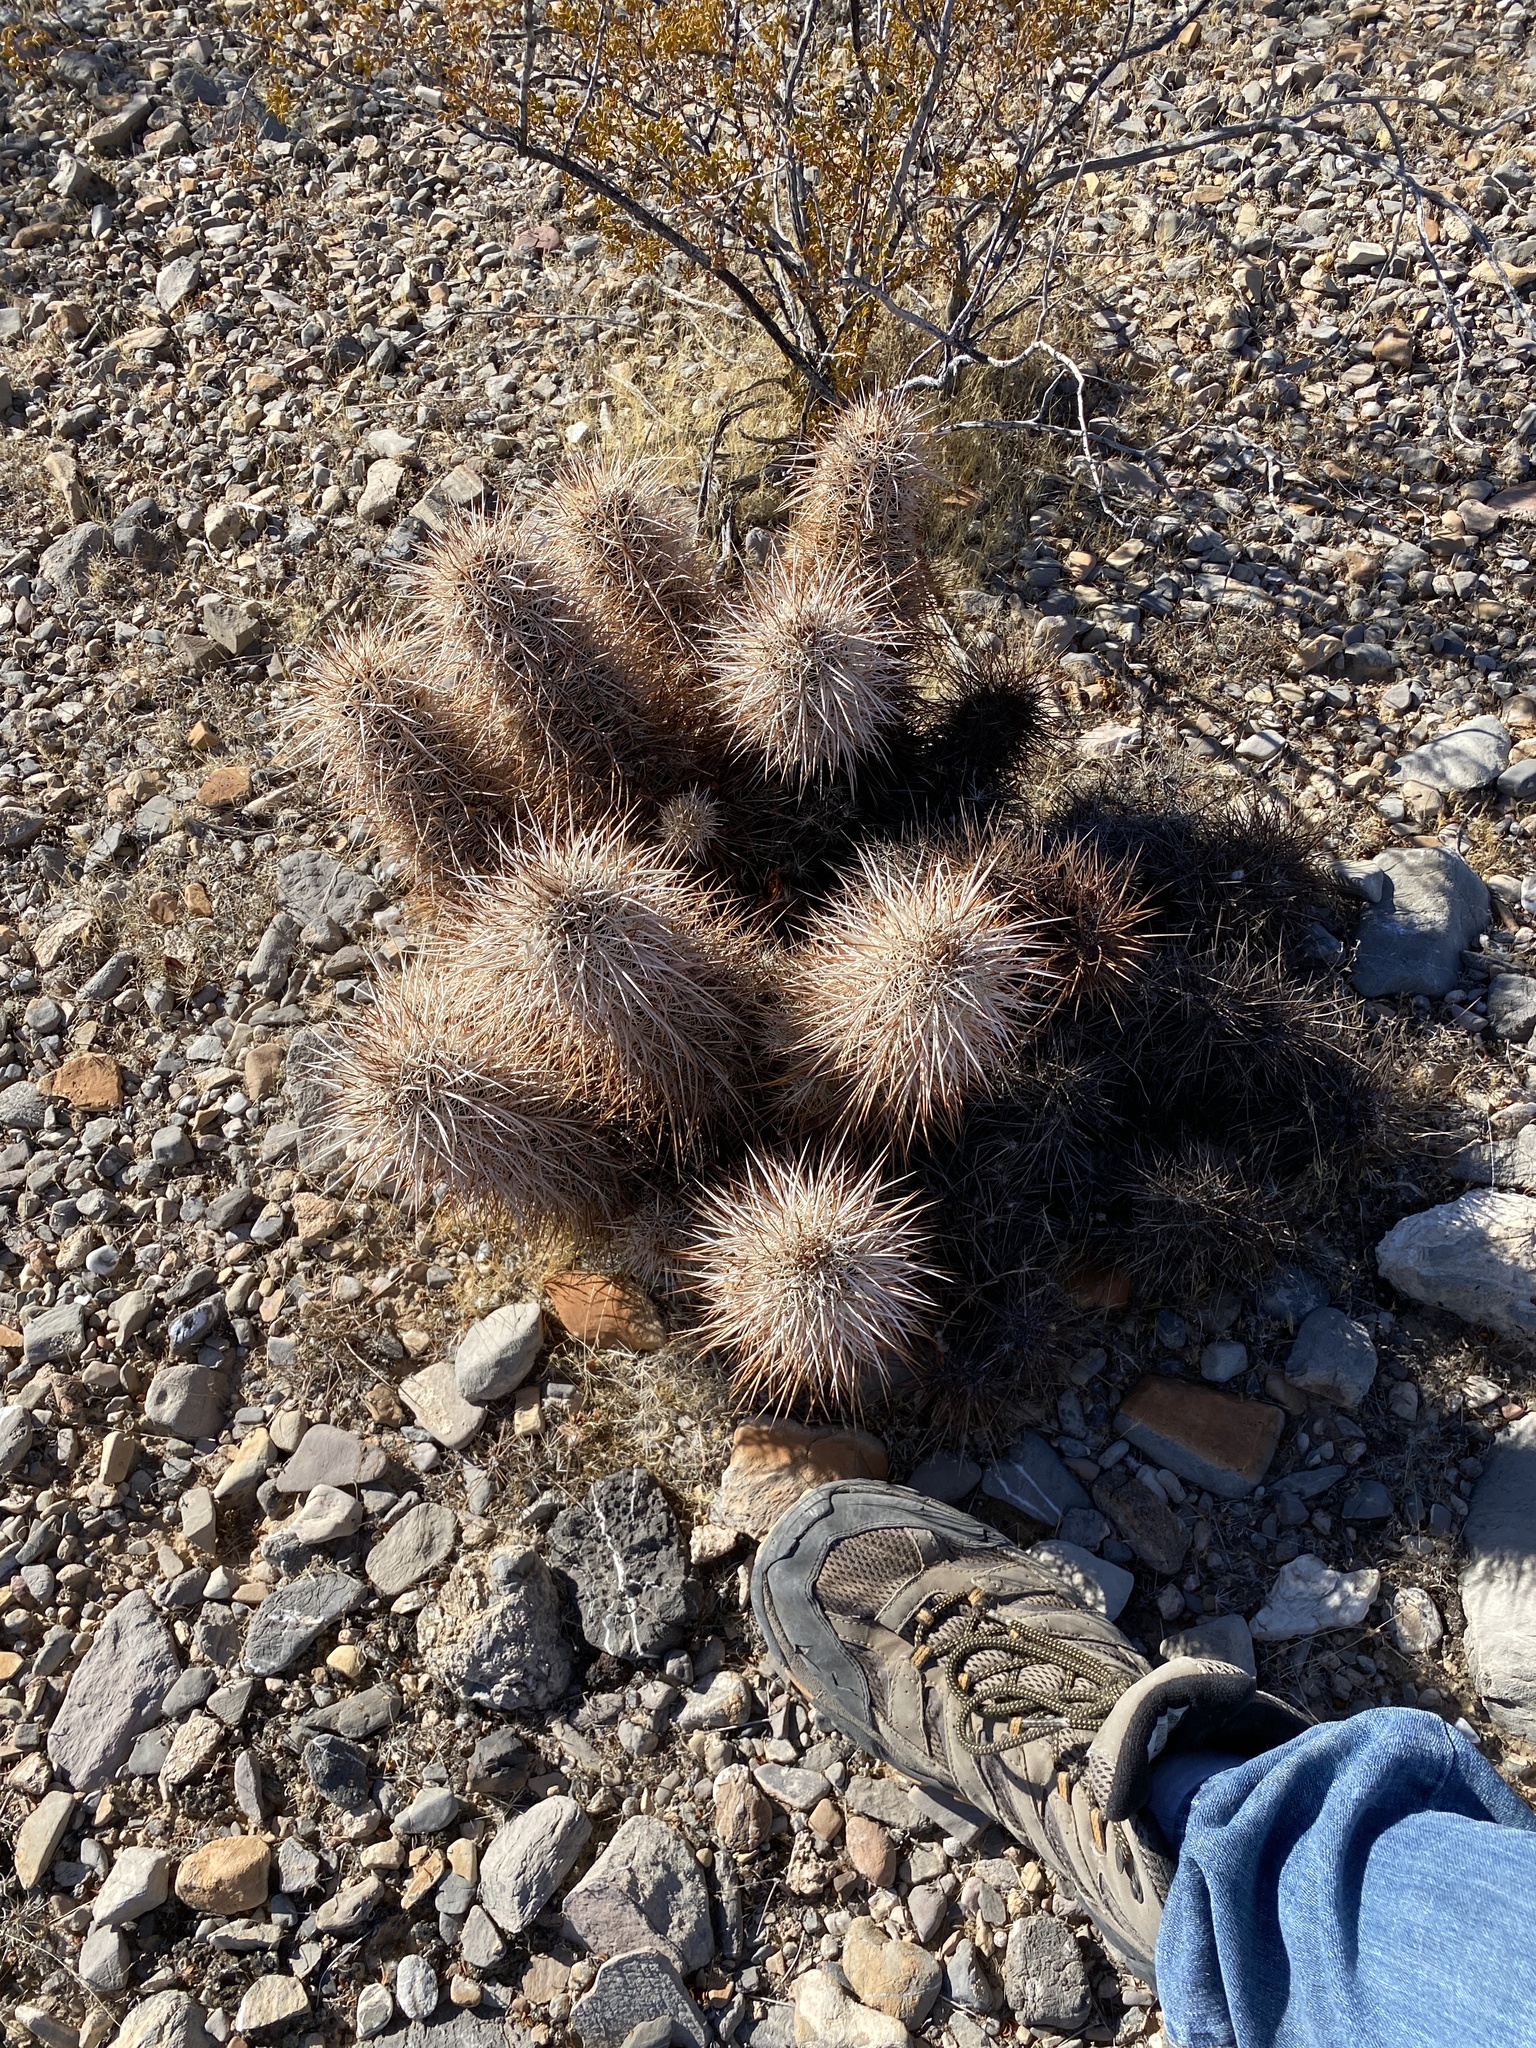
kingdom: Plantae
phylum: Tracheophyta
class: Magnoliopsida
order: Caryophyllales
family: Cactaceae
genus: Echinocereus
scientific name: Echinocereus engelmannii
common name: Engelmann's hedgehog cactus
